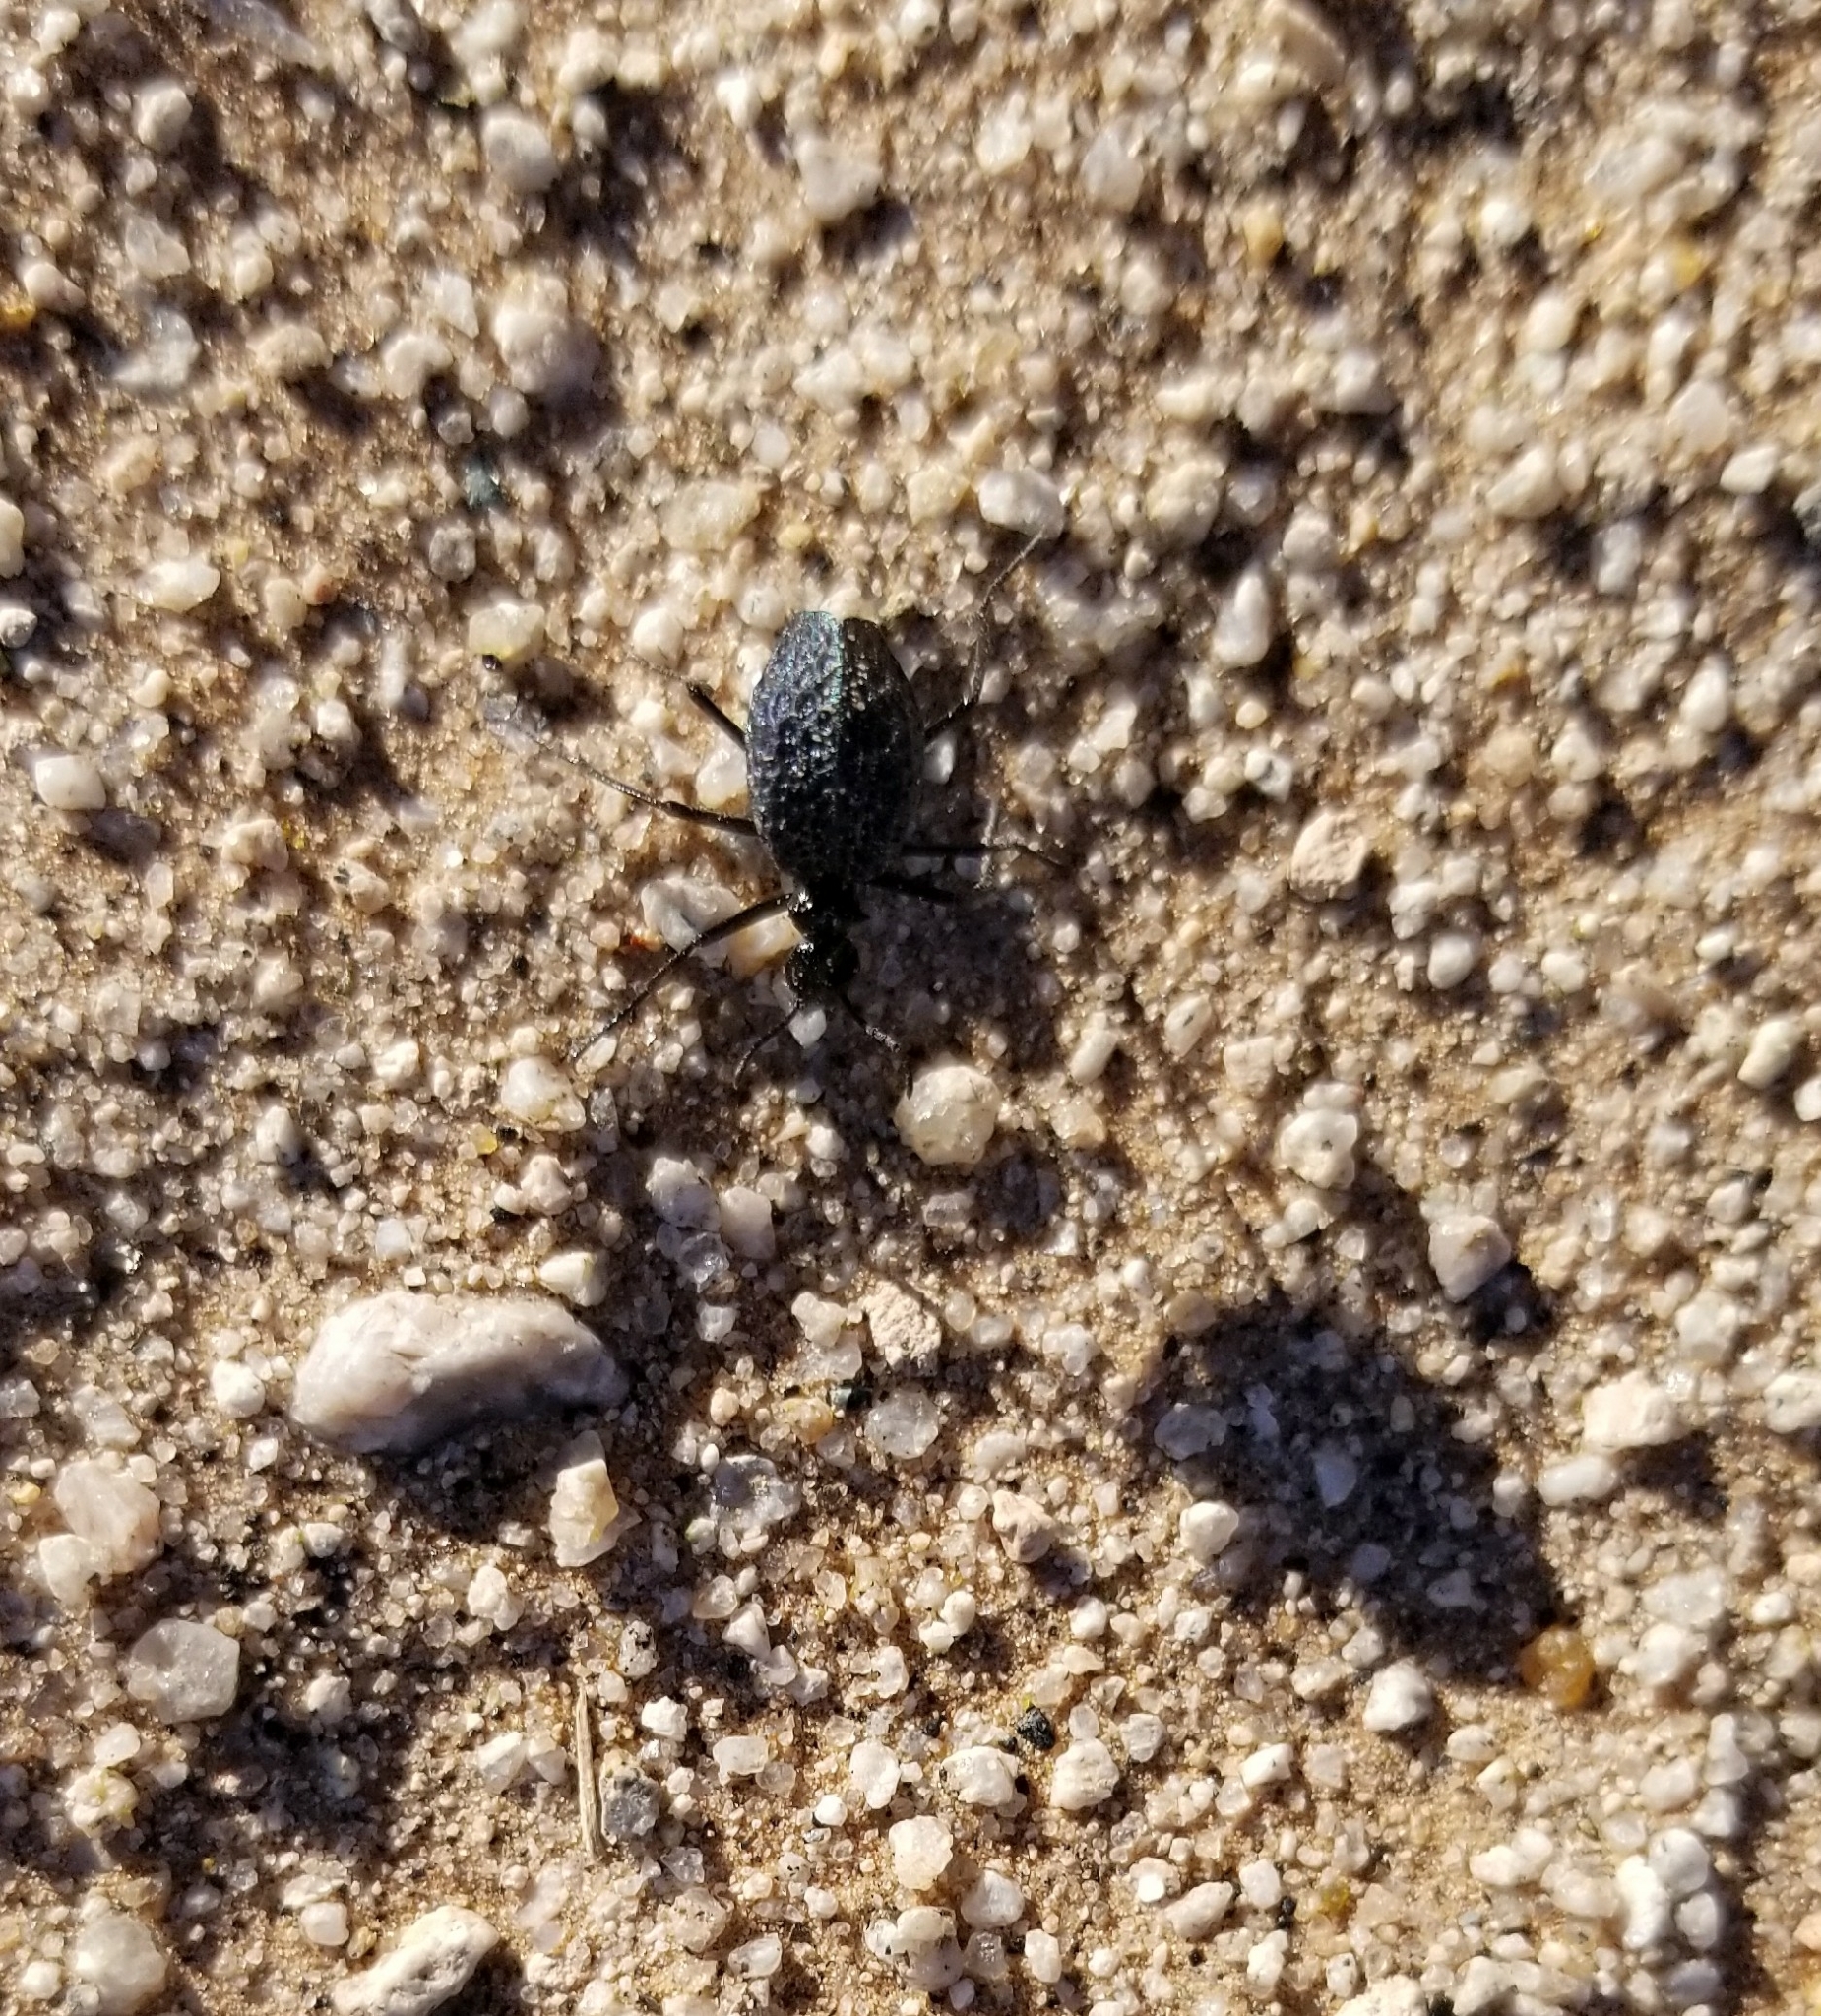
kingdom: Animalia
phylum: Arthropoda
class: Insecta
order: Coleoptera
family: Meloidae
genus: Cysteodemus
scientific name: Cysteodemus armatus
